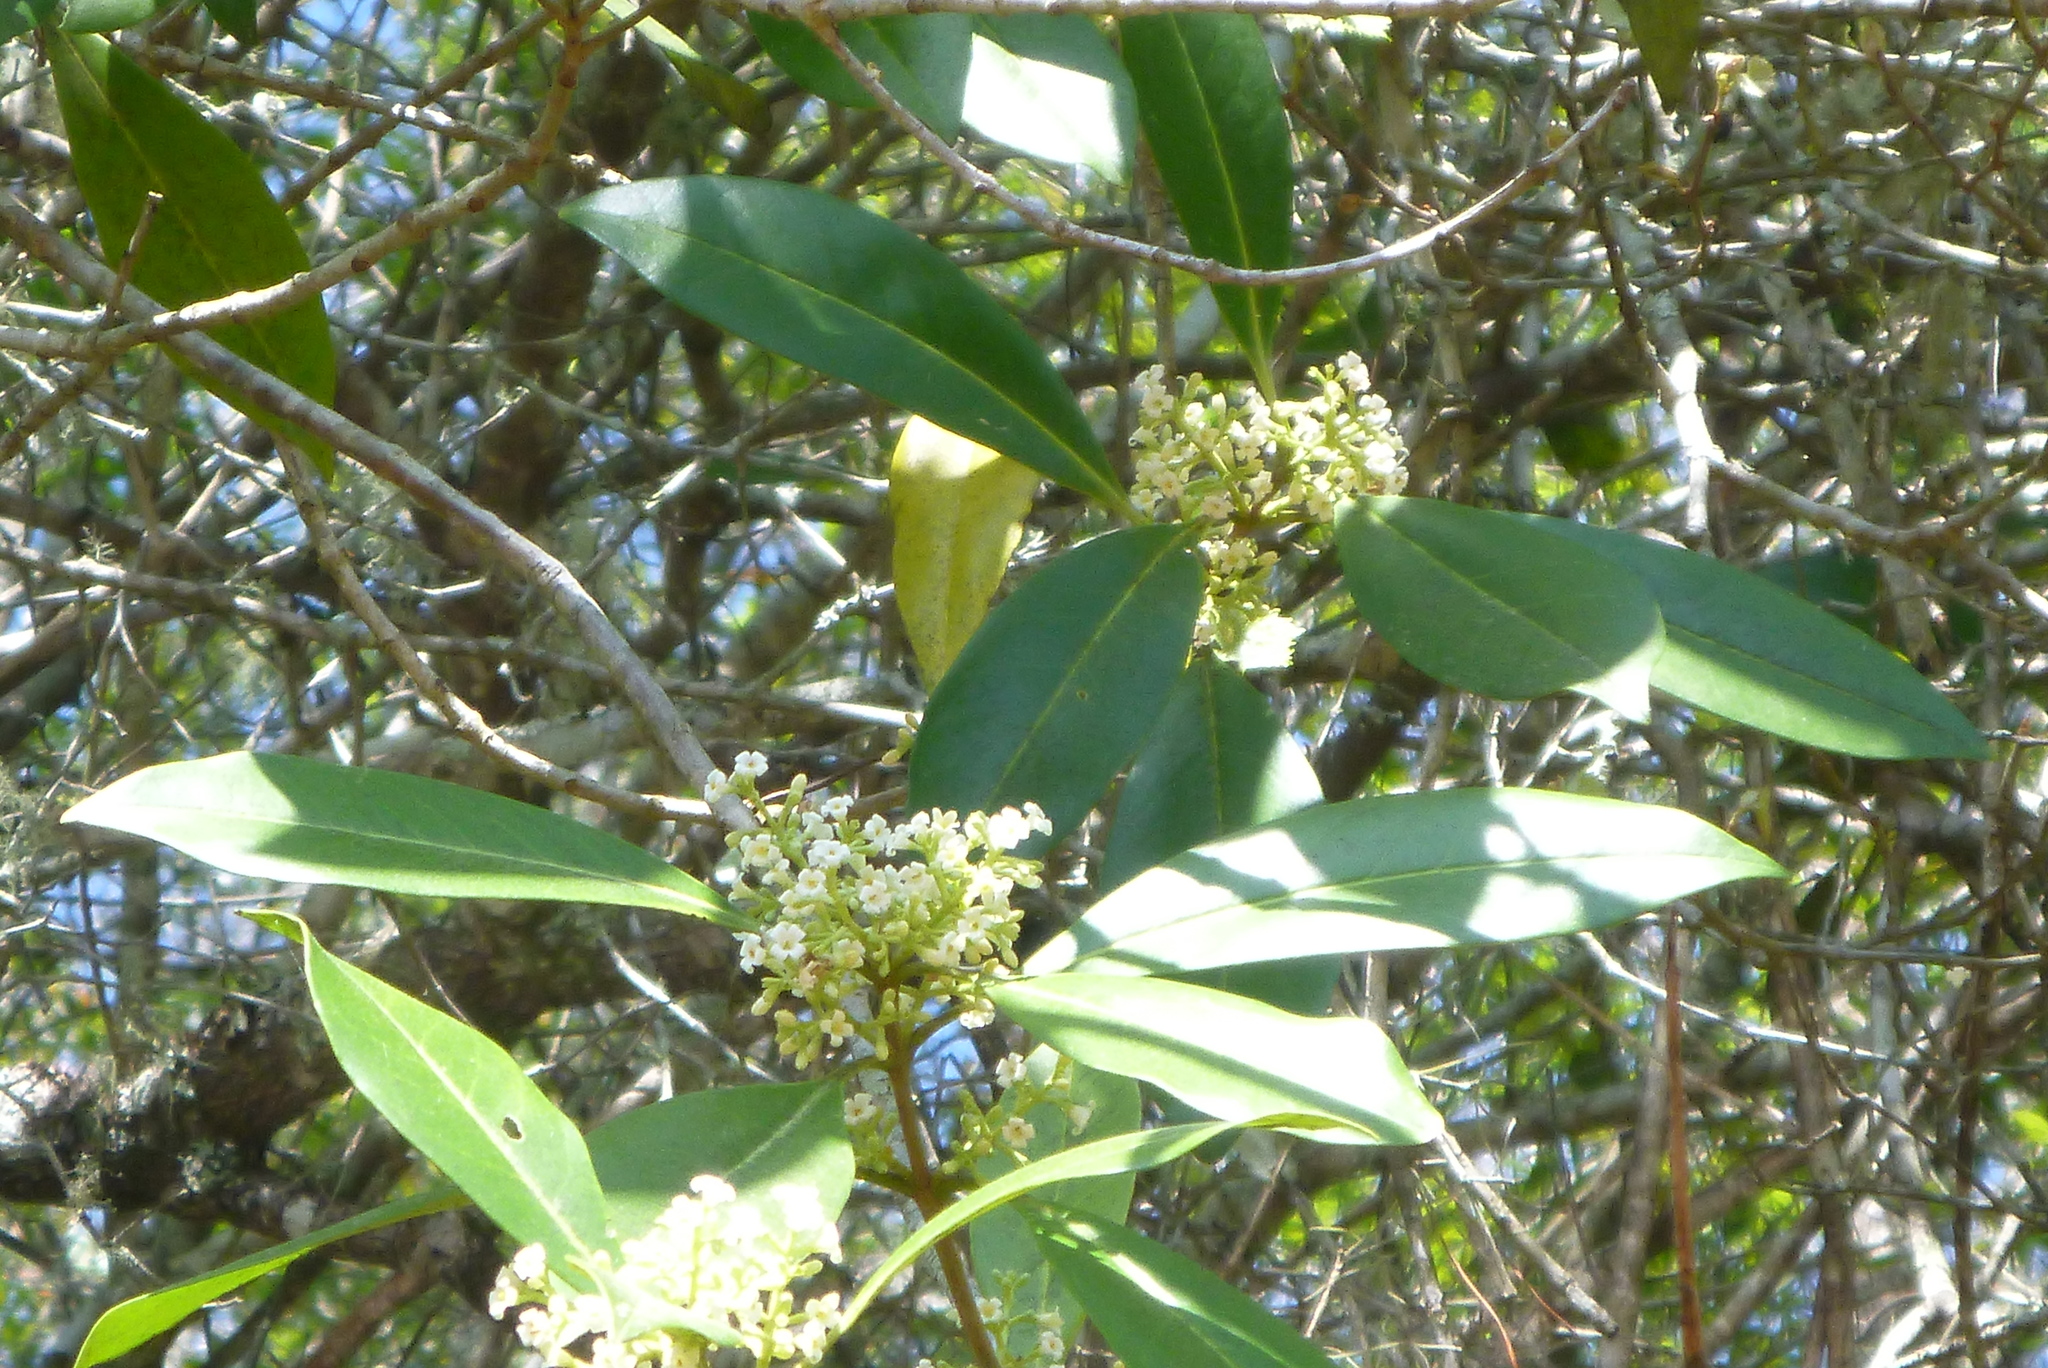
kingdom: Plantae
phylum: Tracheophyta
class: Magnoliopsida
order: Lamiales
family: Oleaceae
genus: Cartrema
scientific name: Cartrema americana
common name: Devilwood
